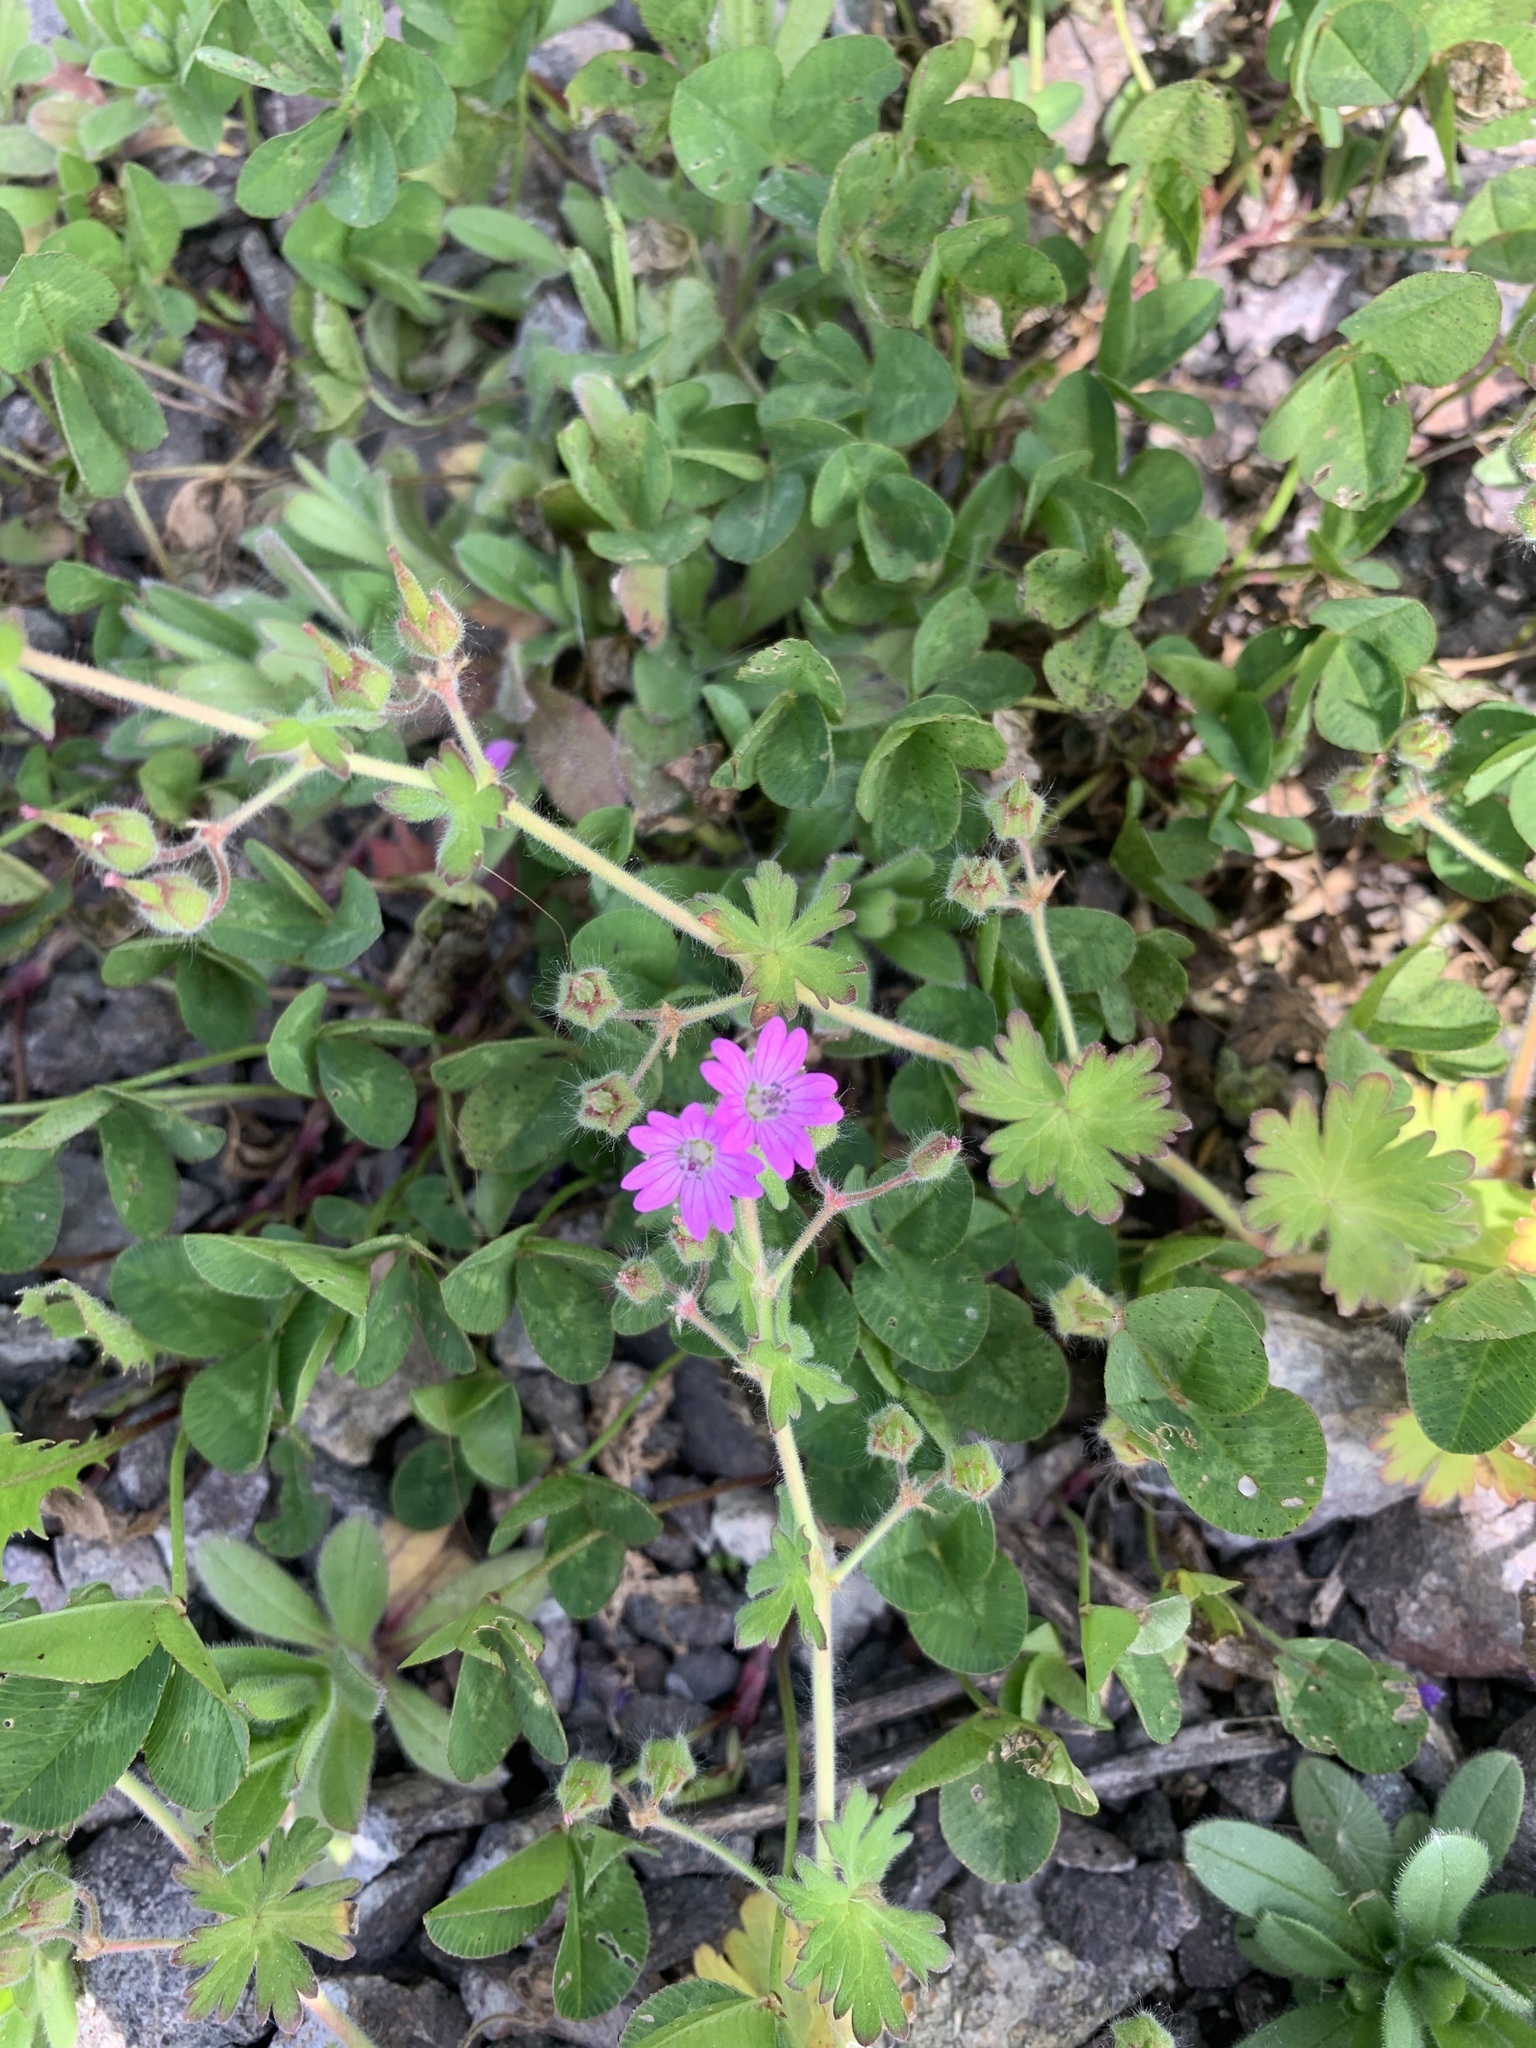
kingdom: Plantae
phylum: Tracheophyta
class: Magnoliopsida
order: Geraniales
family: Geraniaceae
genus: Geranium
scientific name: Geranium molle
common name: Dove's-foot crane's-bill
